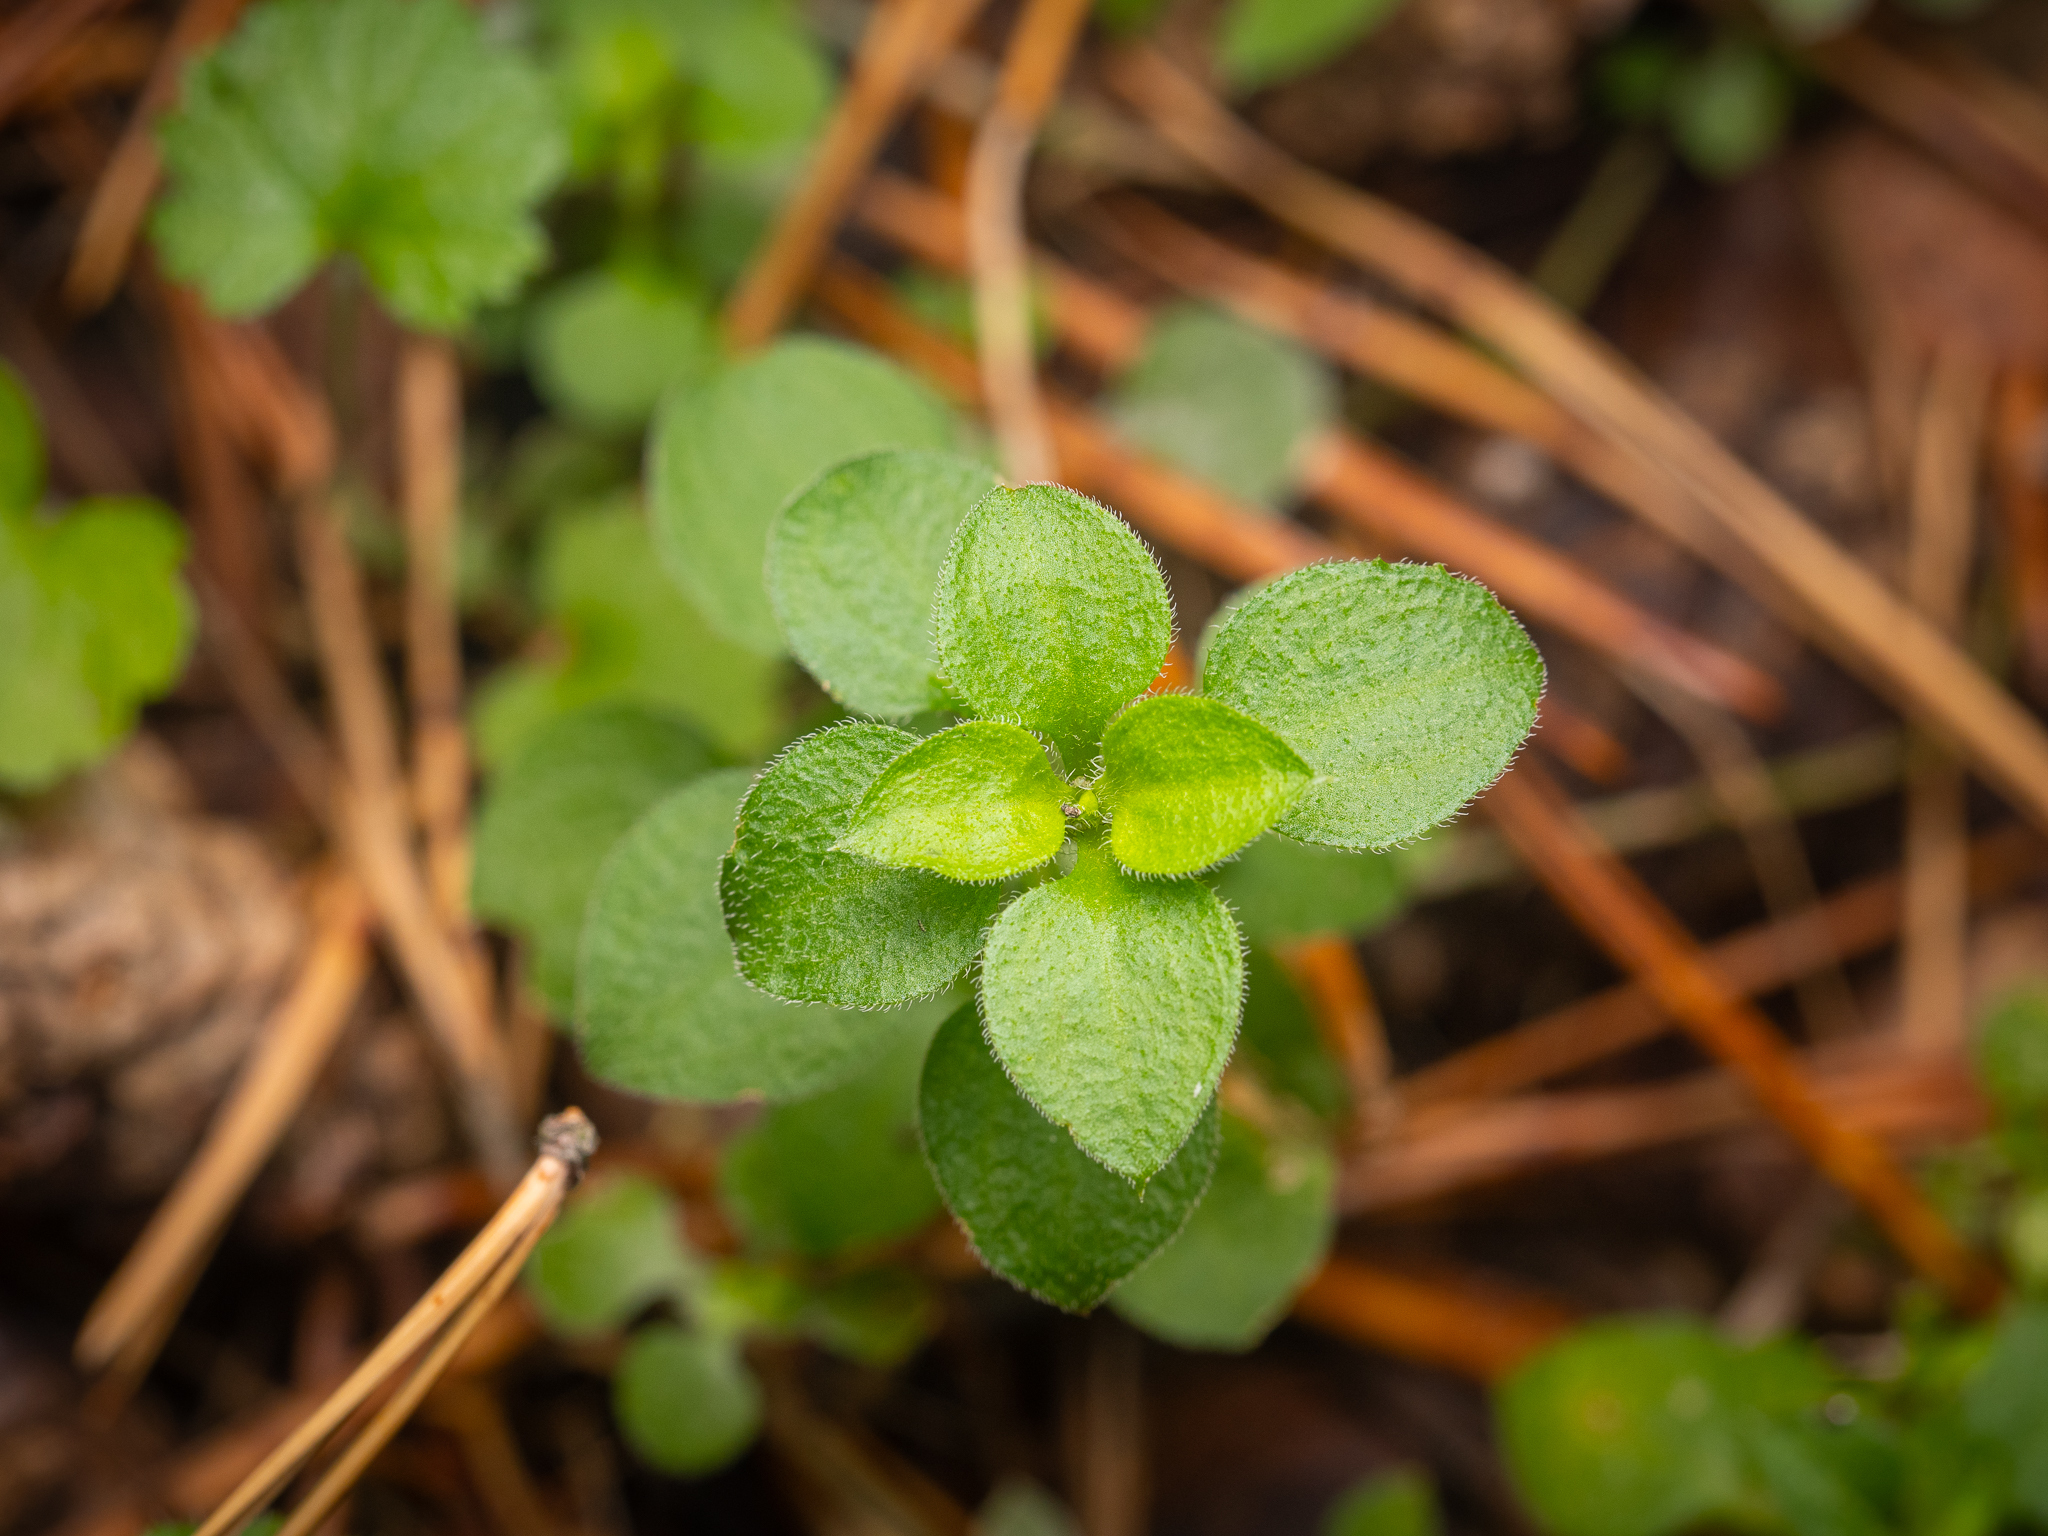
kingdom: Plantae
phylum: Tracheophyta
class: Magnoliopsida
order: Caryophyllales
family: Caryophyllaceae
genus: Moehringia
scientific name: Moehringia trinervia
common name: Three-nerved sandwort
